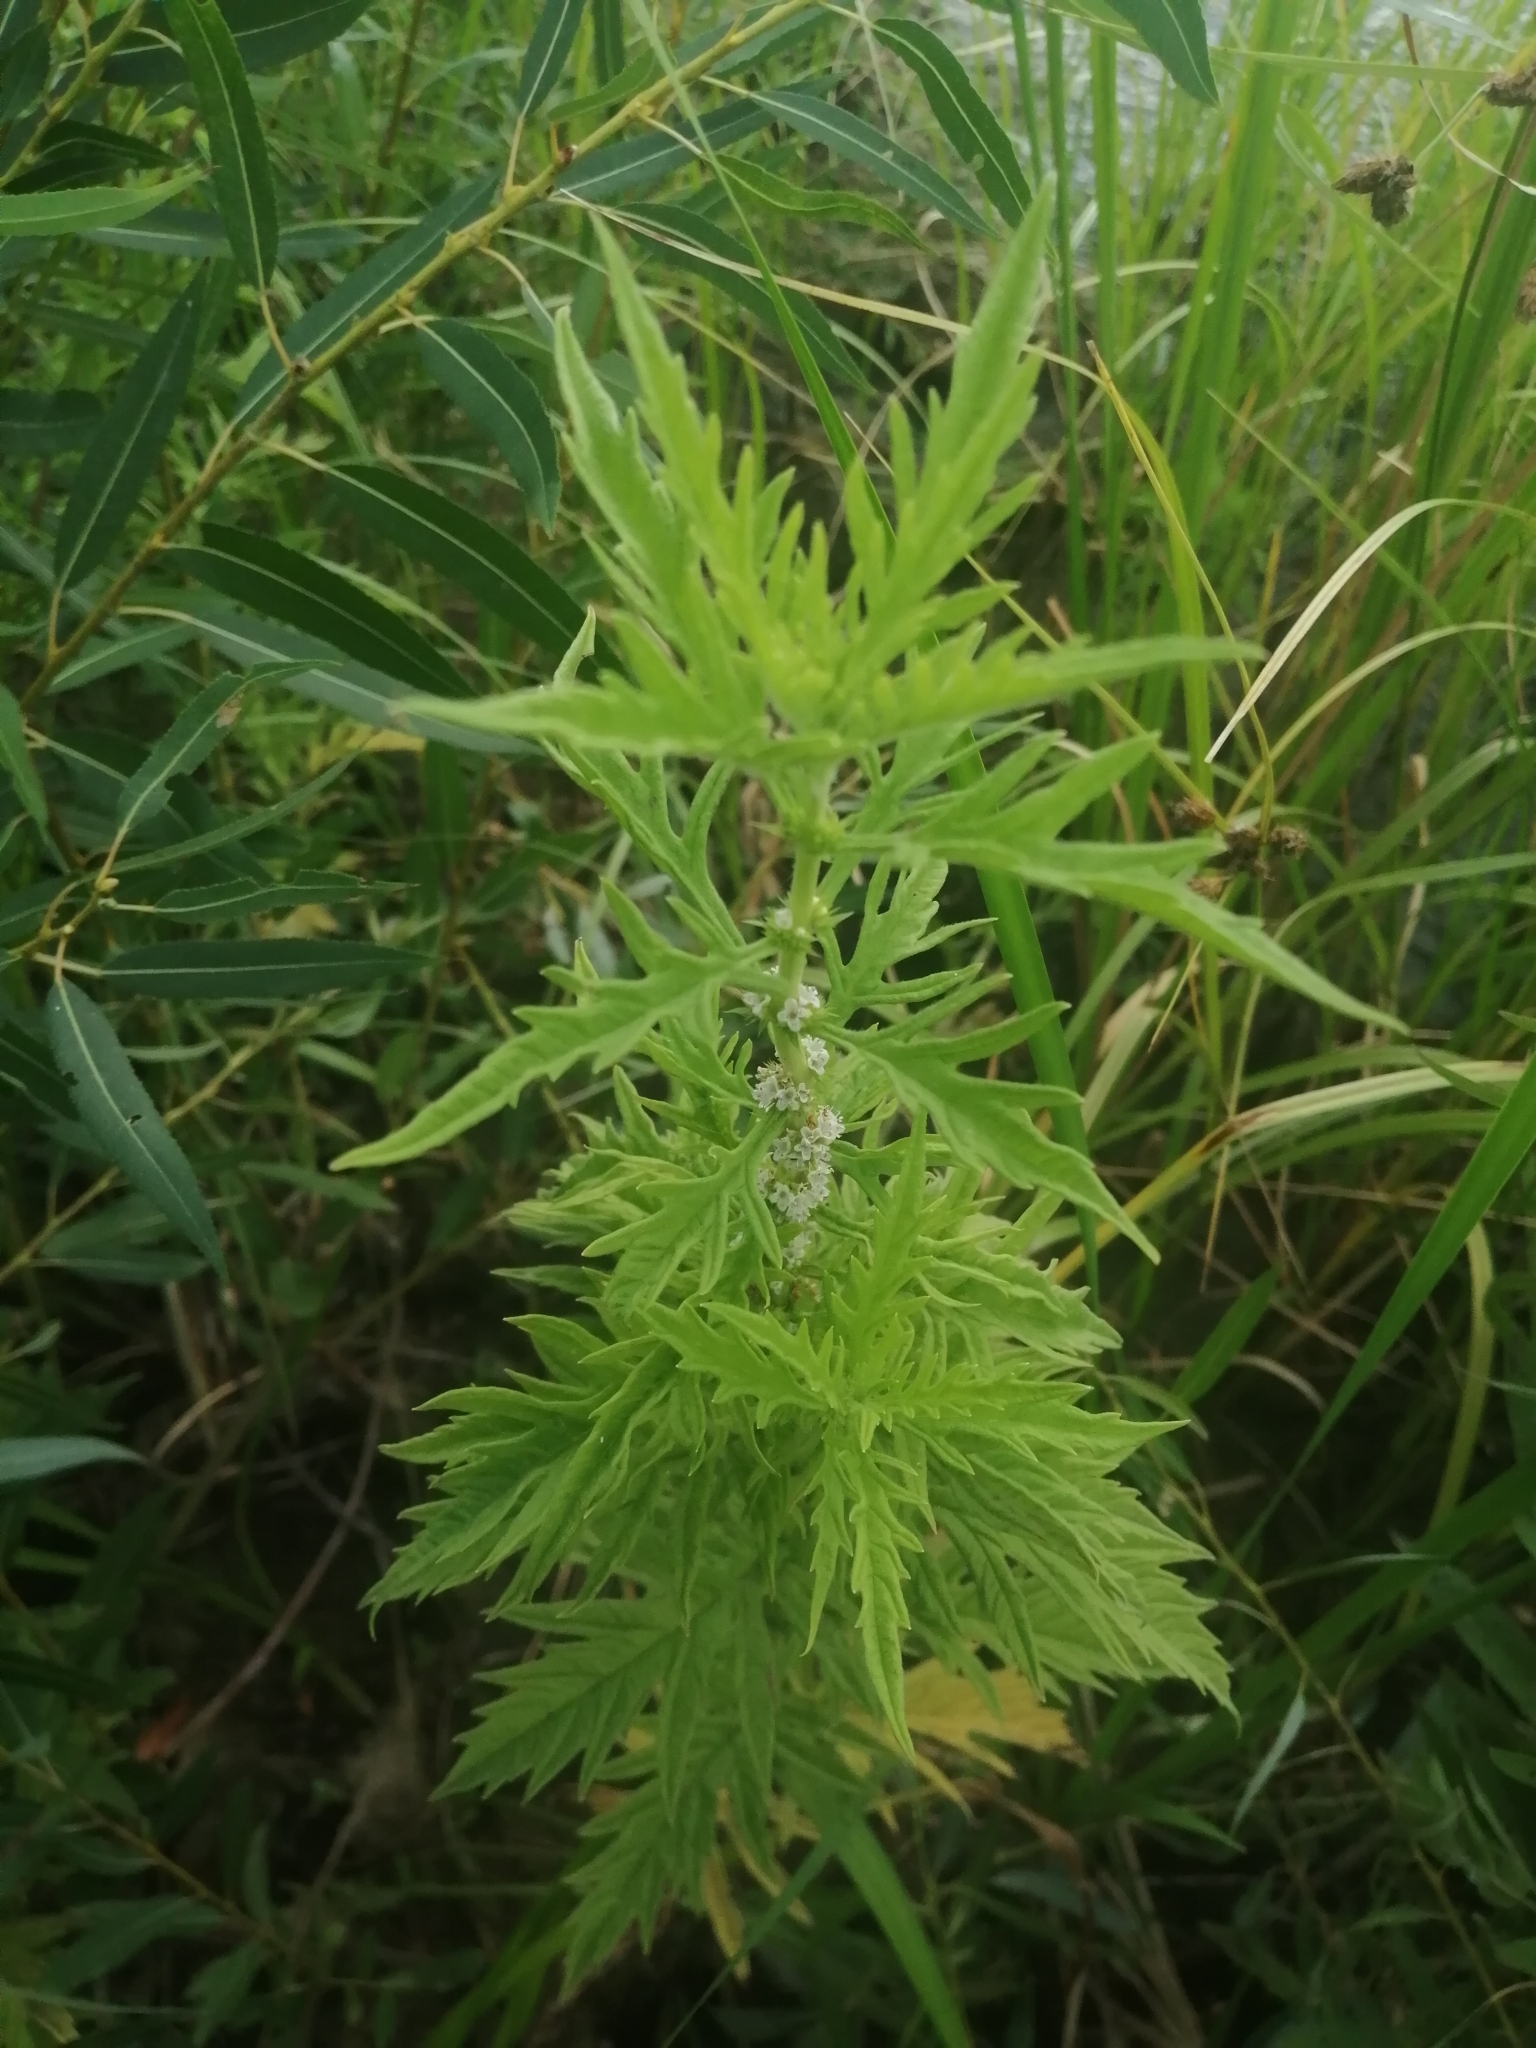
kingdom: Plantae
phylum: Tracheophyta
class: Magnoliopsida
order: Lamiales
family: Lamiaceae
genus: Lycopus
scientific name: Lycopus exaltatus
